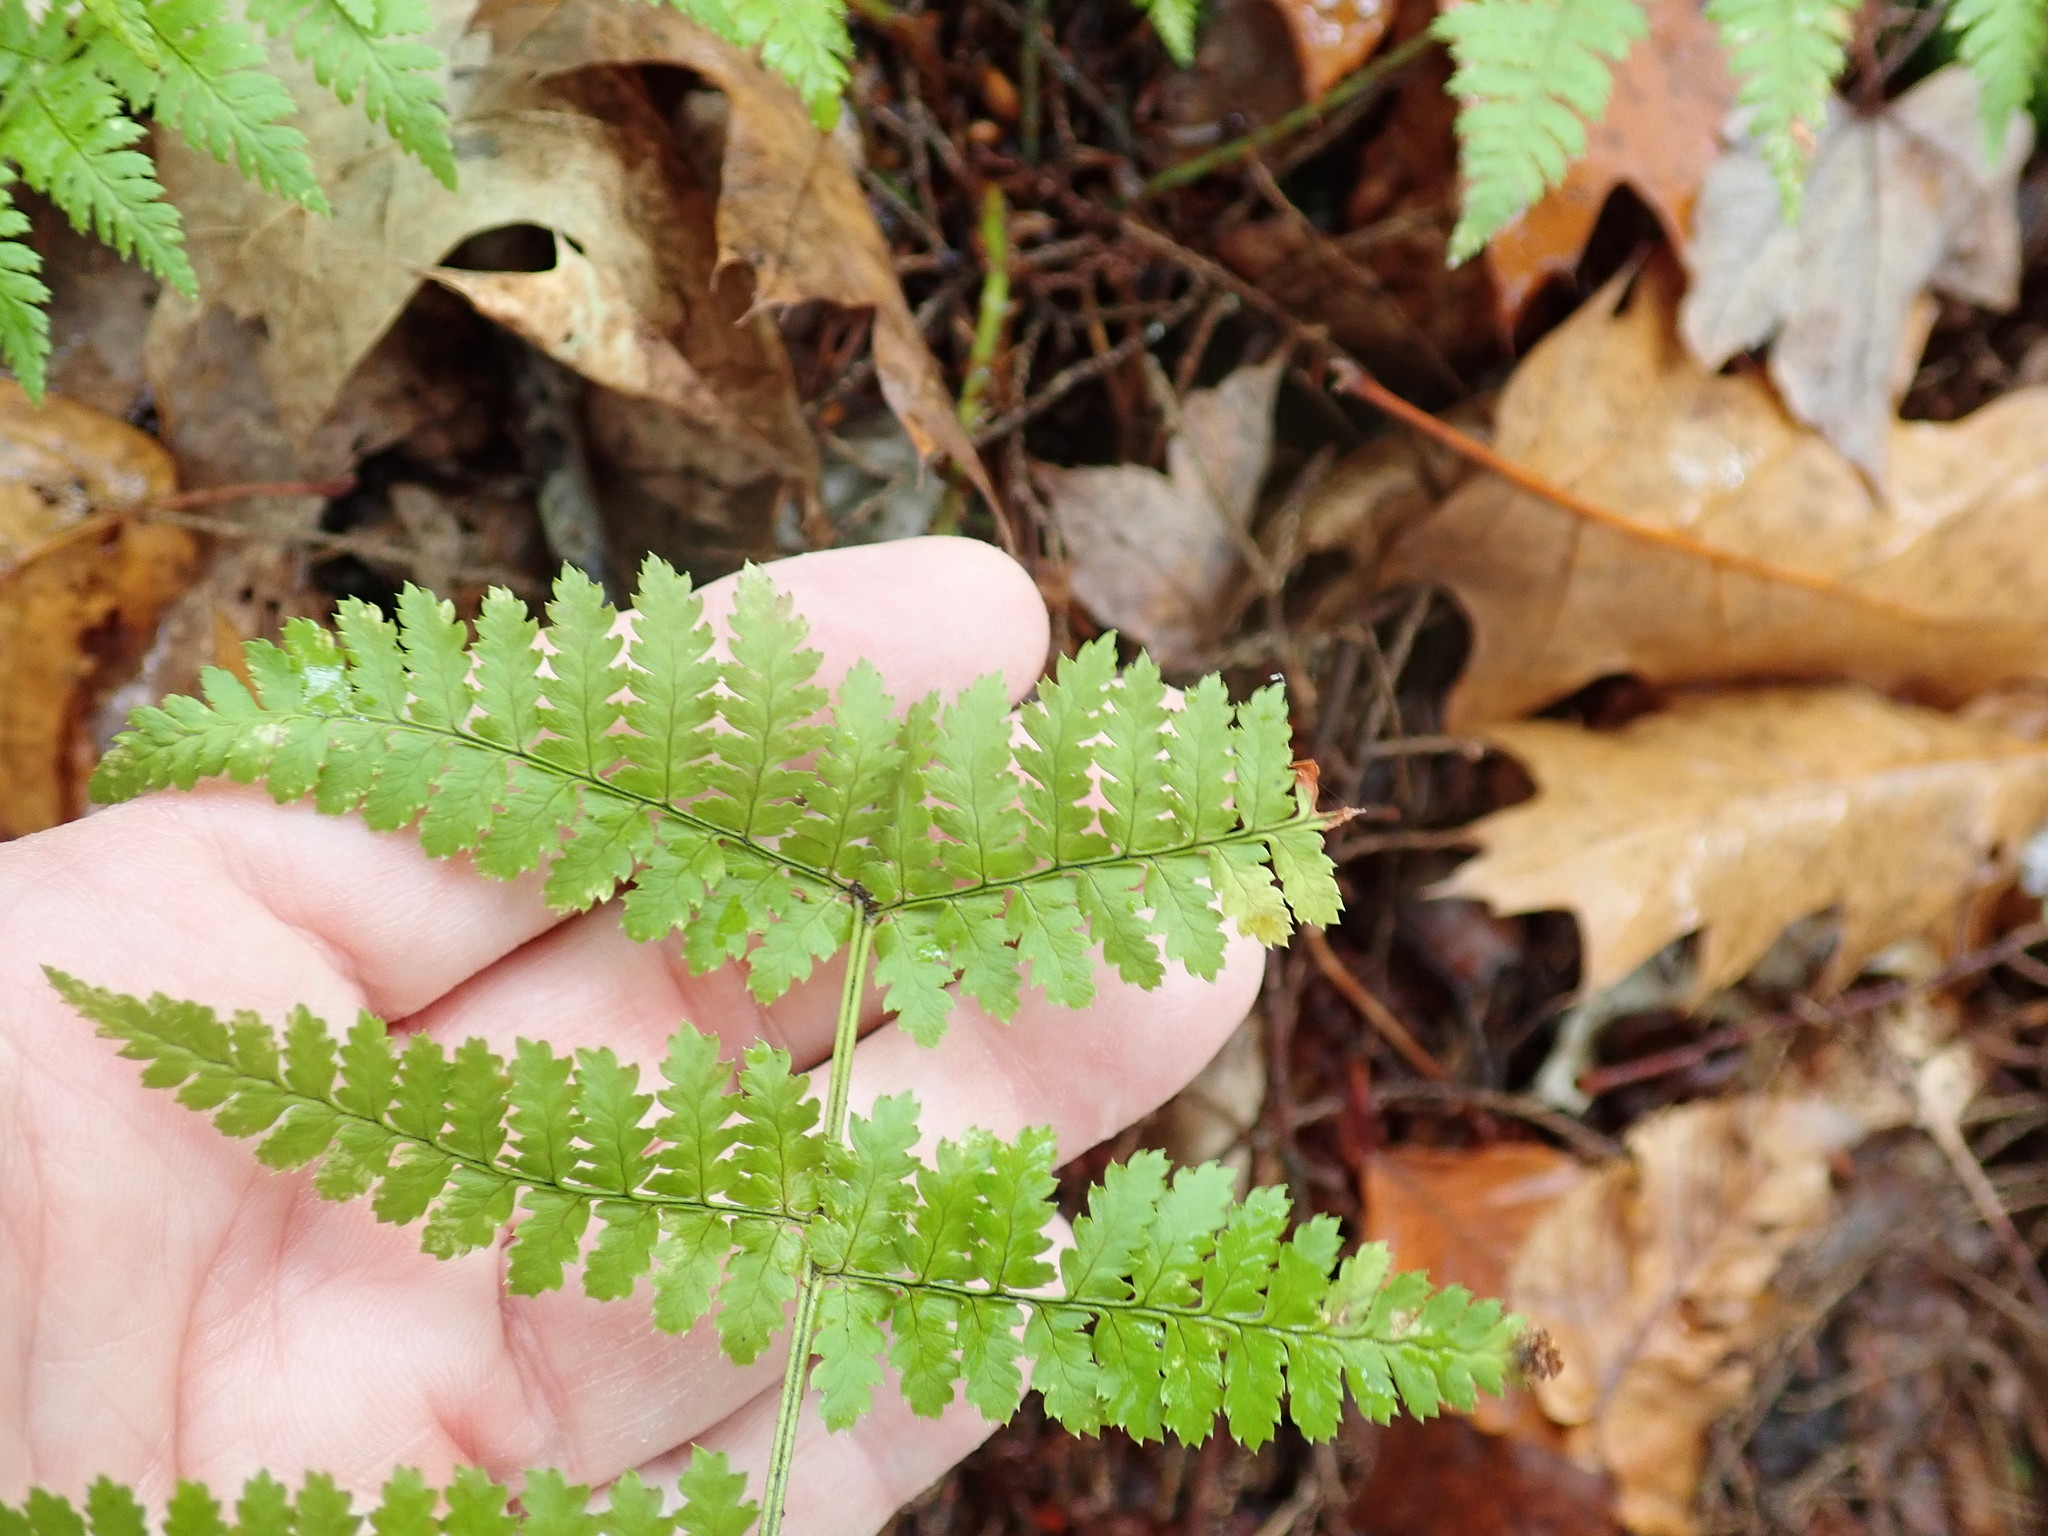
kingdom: Plantae
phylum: Tracheophyta
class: Polypodiopsida
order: Polypodiales
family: Dryopteridaceae
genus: Dryopteris
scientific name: Dryopteris intermedia
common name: Evergreen wood fern
